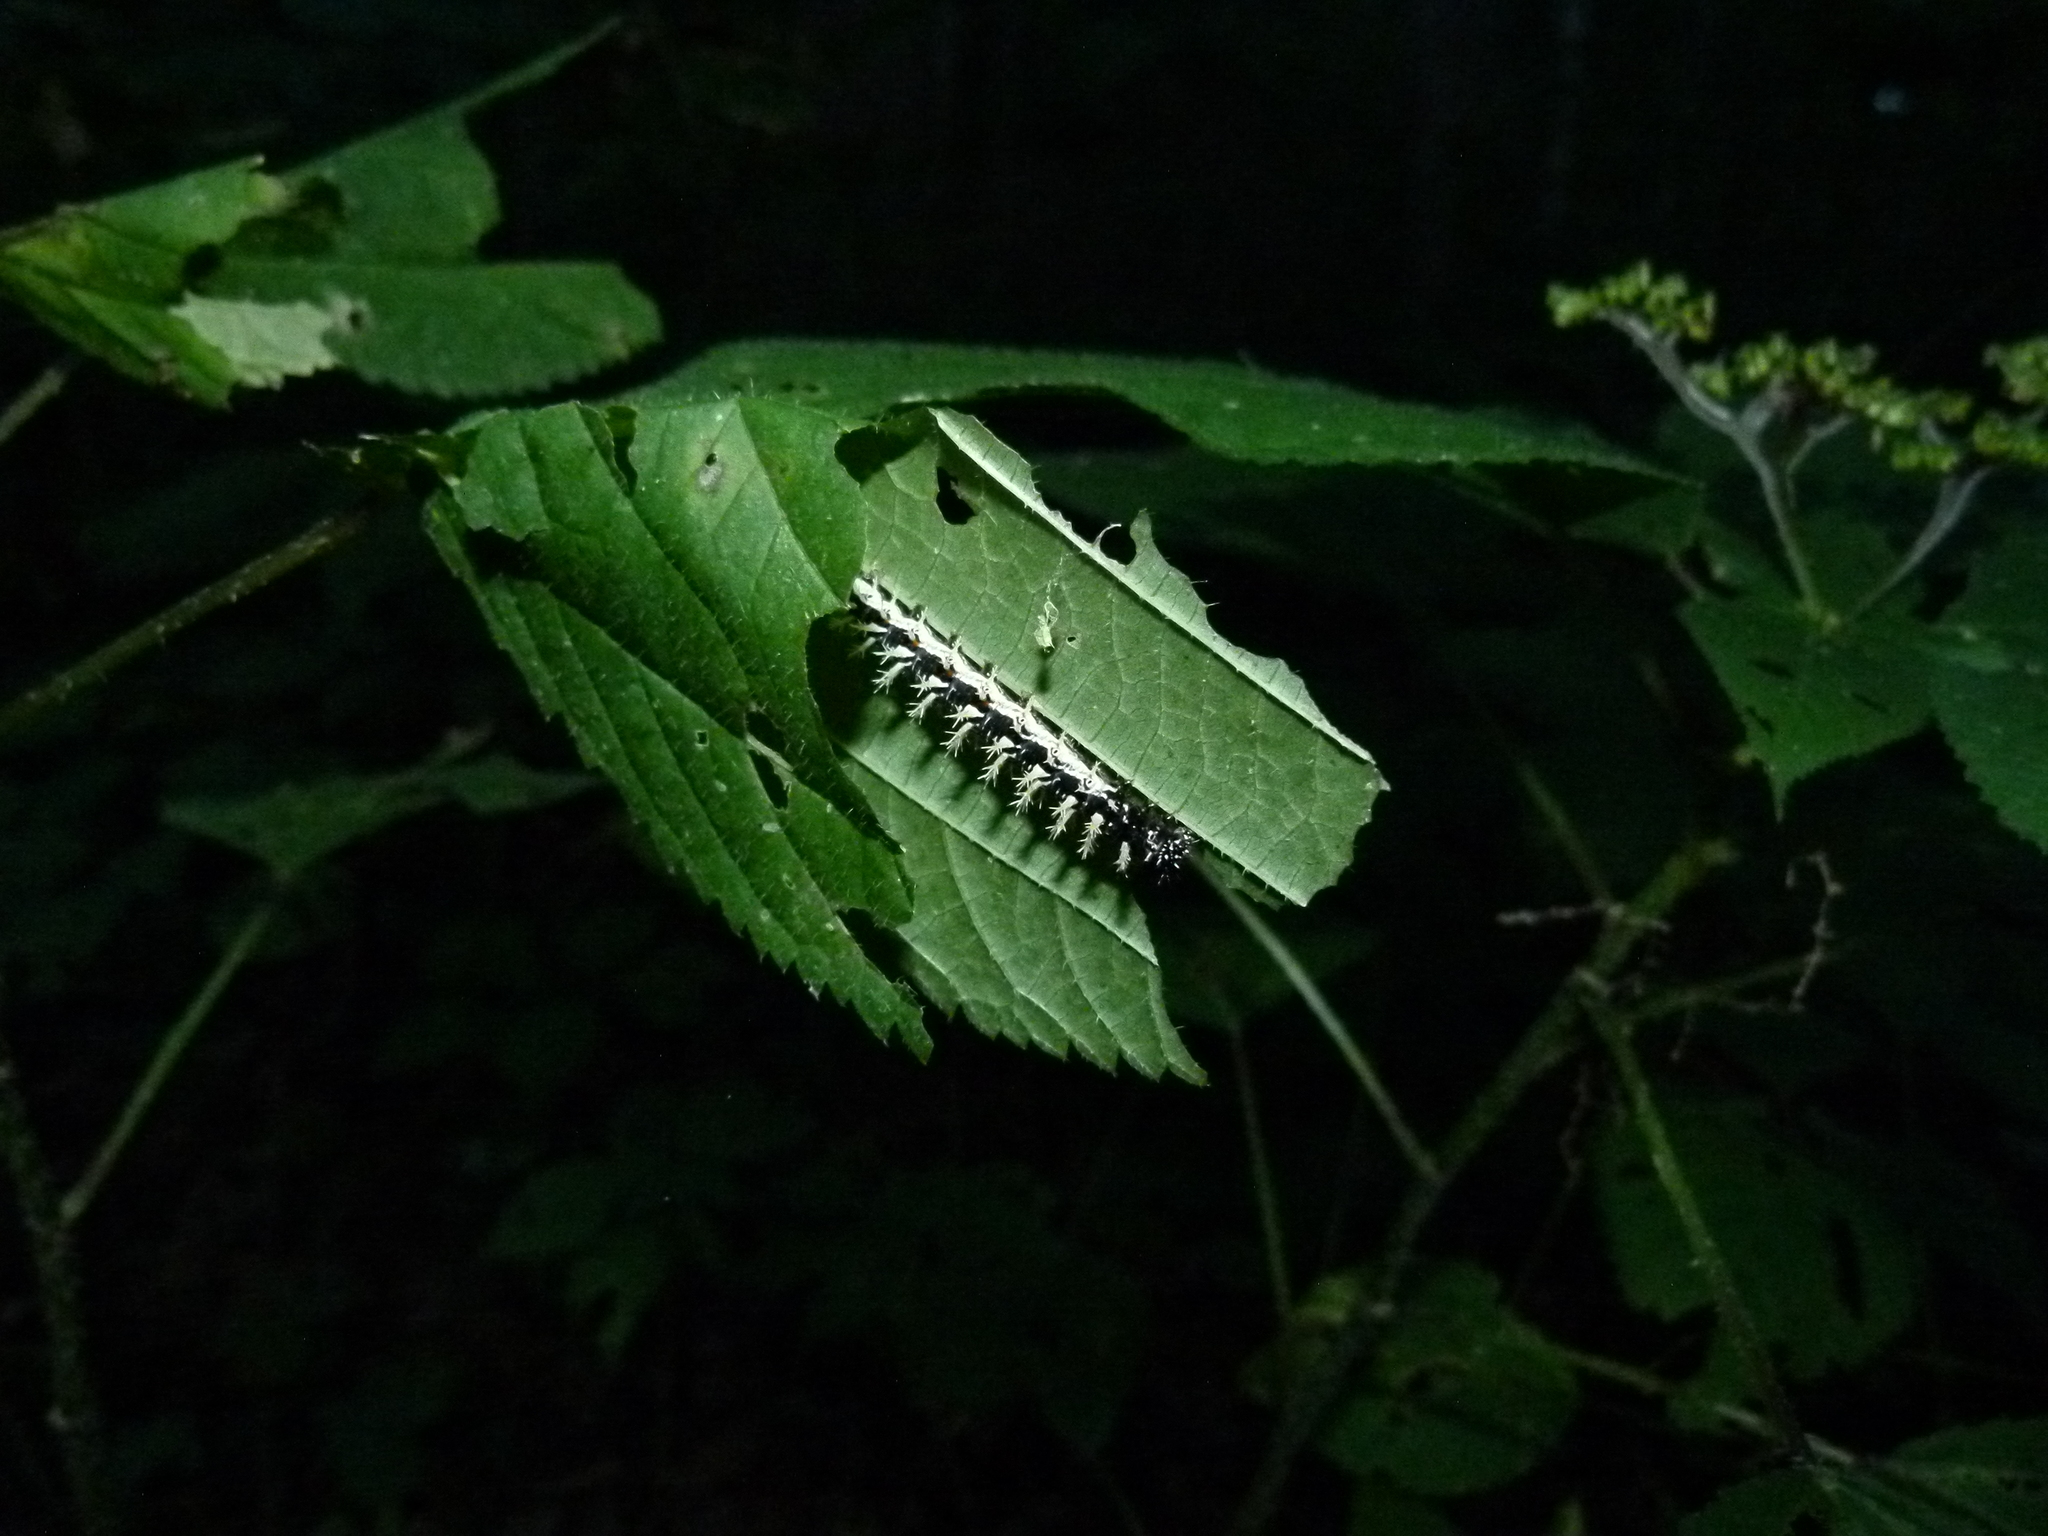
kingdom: Animalia
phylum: Arthropoda
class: Insecta
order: Lepidoptera
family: Nymphalidae
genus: Polygonia
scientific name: Polygonia comma
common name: Eastern comma
